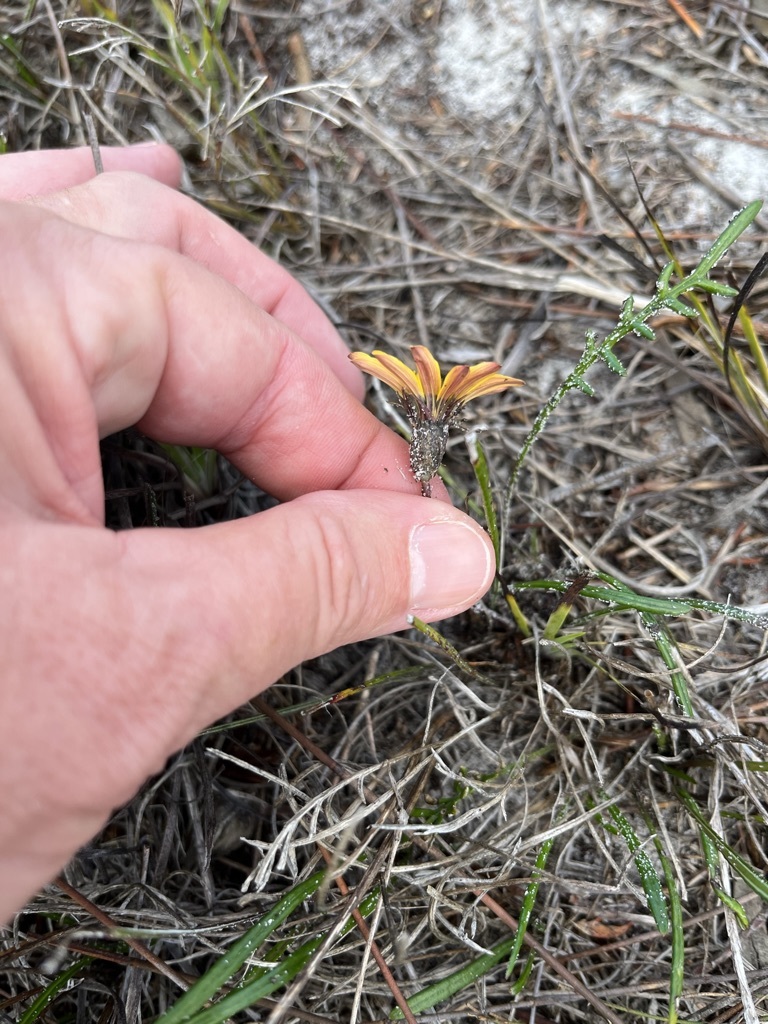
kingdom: Plantae
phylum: Tracheophyta
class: Magnoliopsida
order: Asterales
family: Asteraceae
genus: Gazania
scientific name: Gazania pectinata
